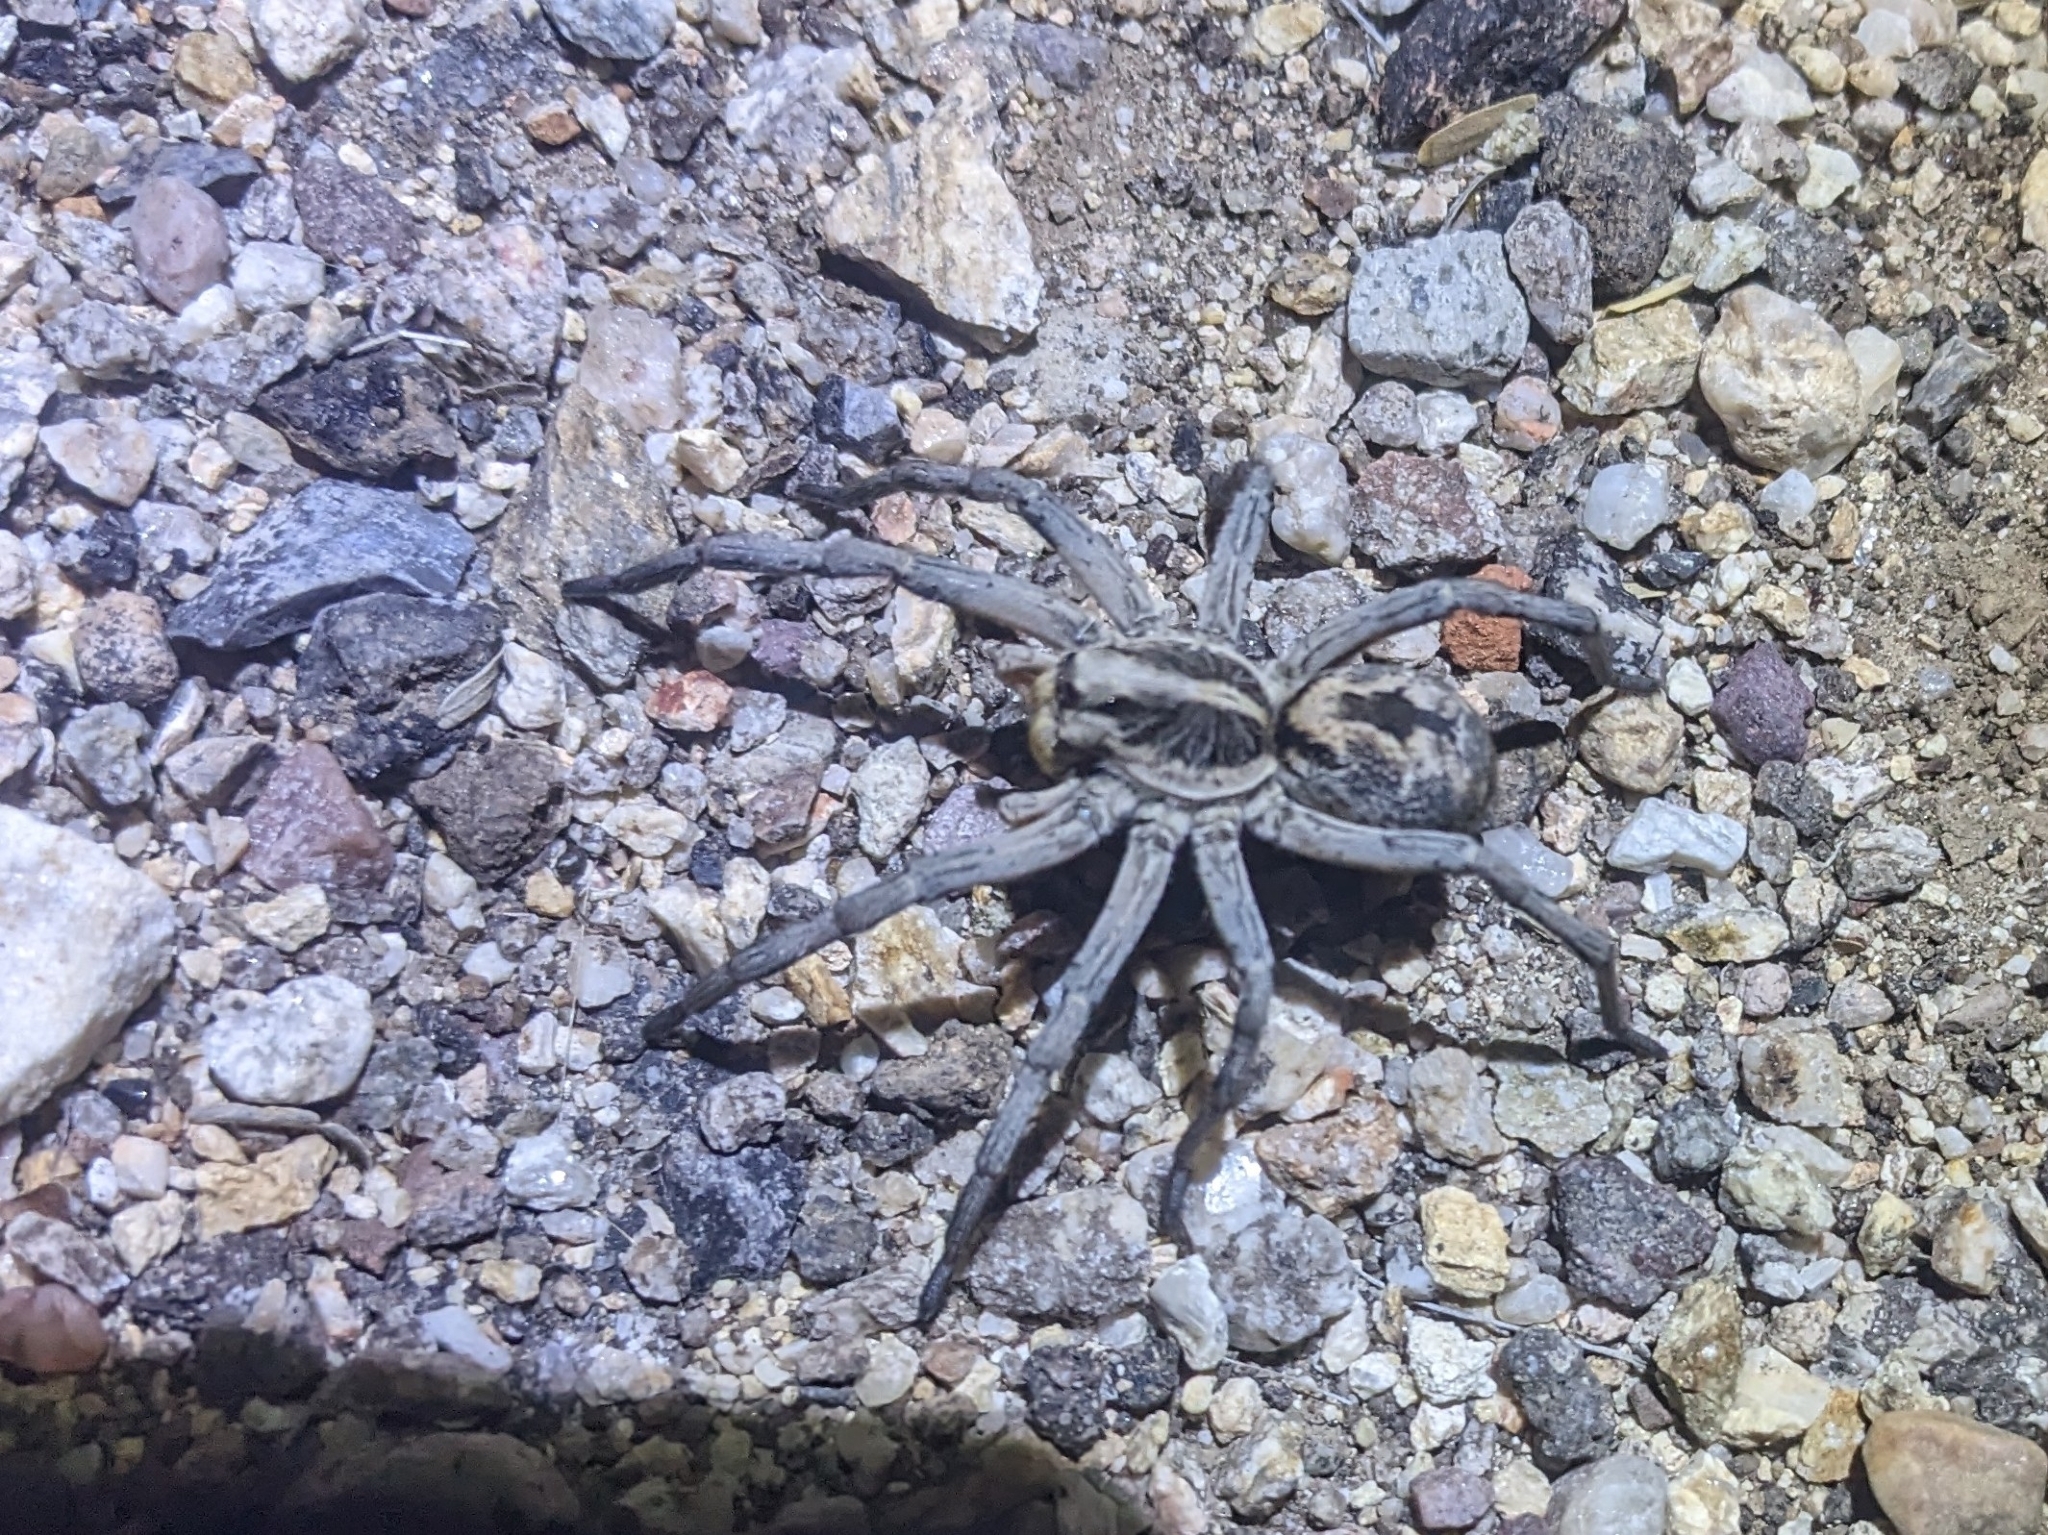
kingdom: Animalia
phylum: Arthropoda
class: Arachnida
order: Araneae
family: Lycosidae
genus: Hogna
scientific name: Hogna carolinensis
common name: Carolina wolf spider
